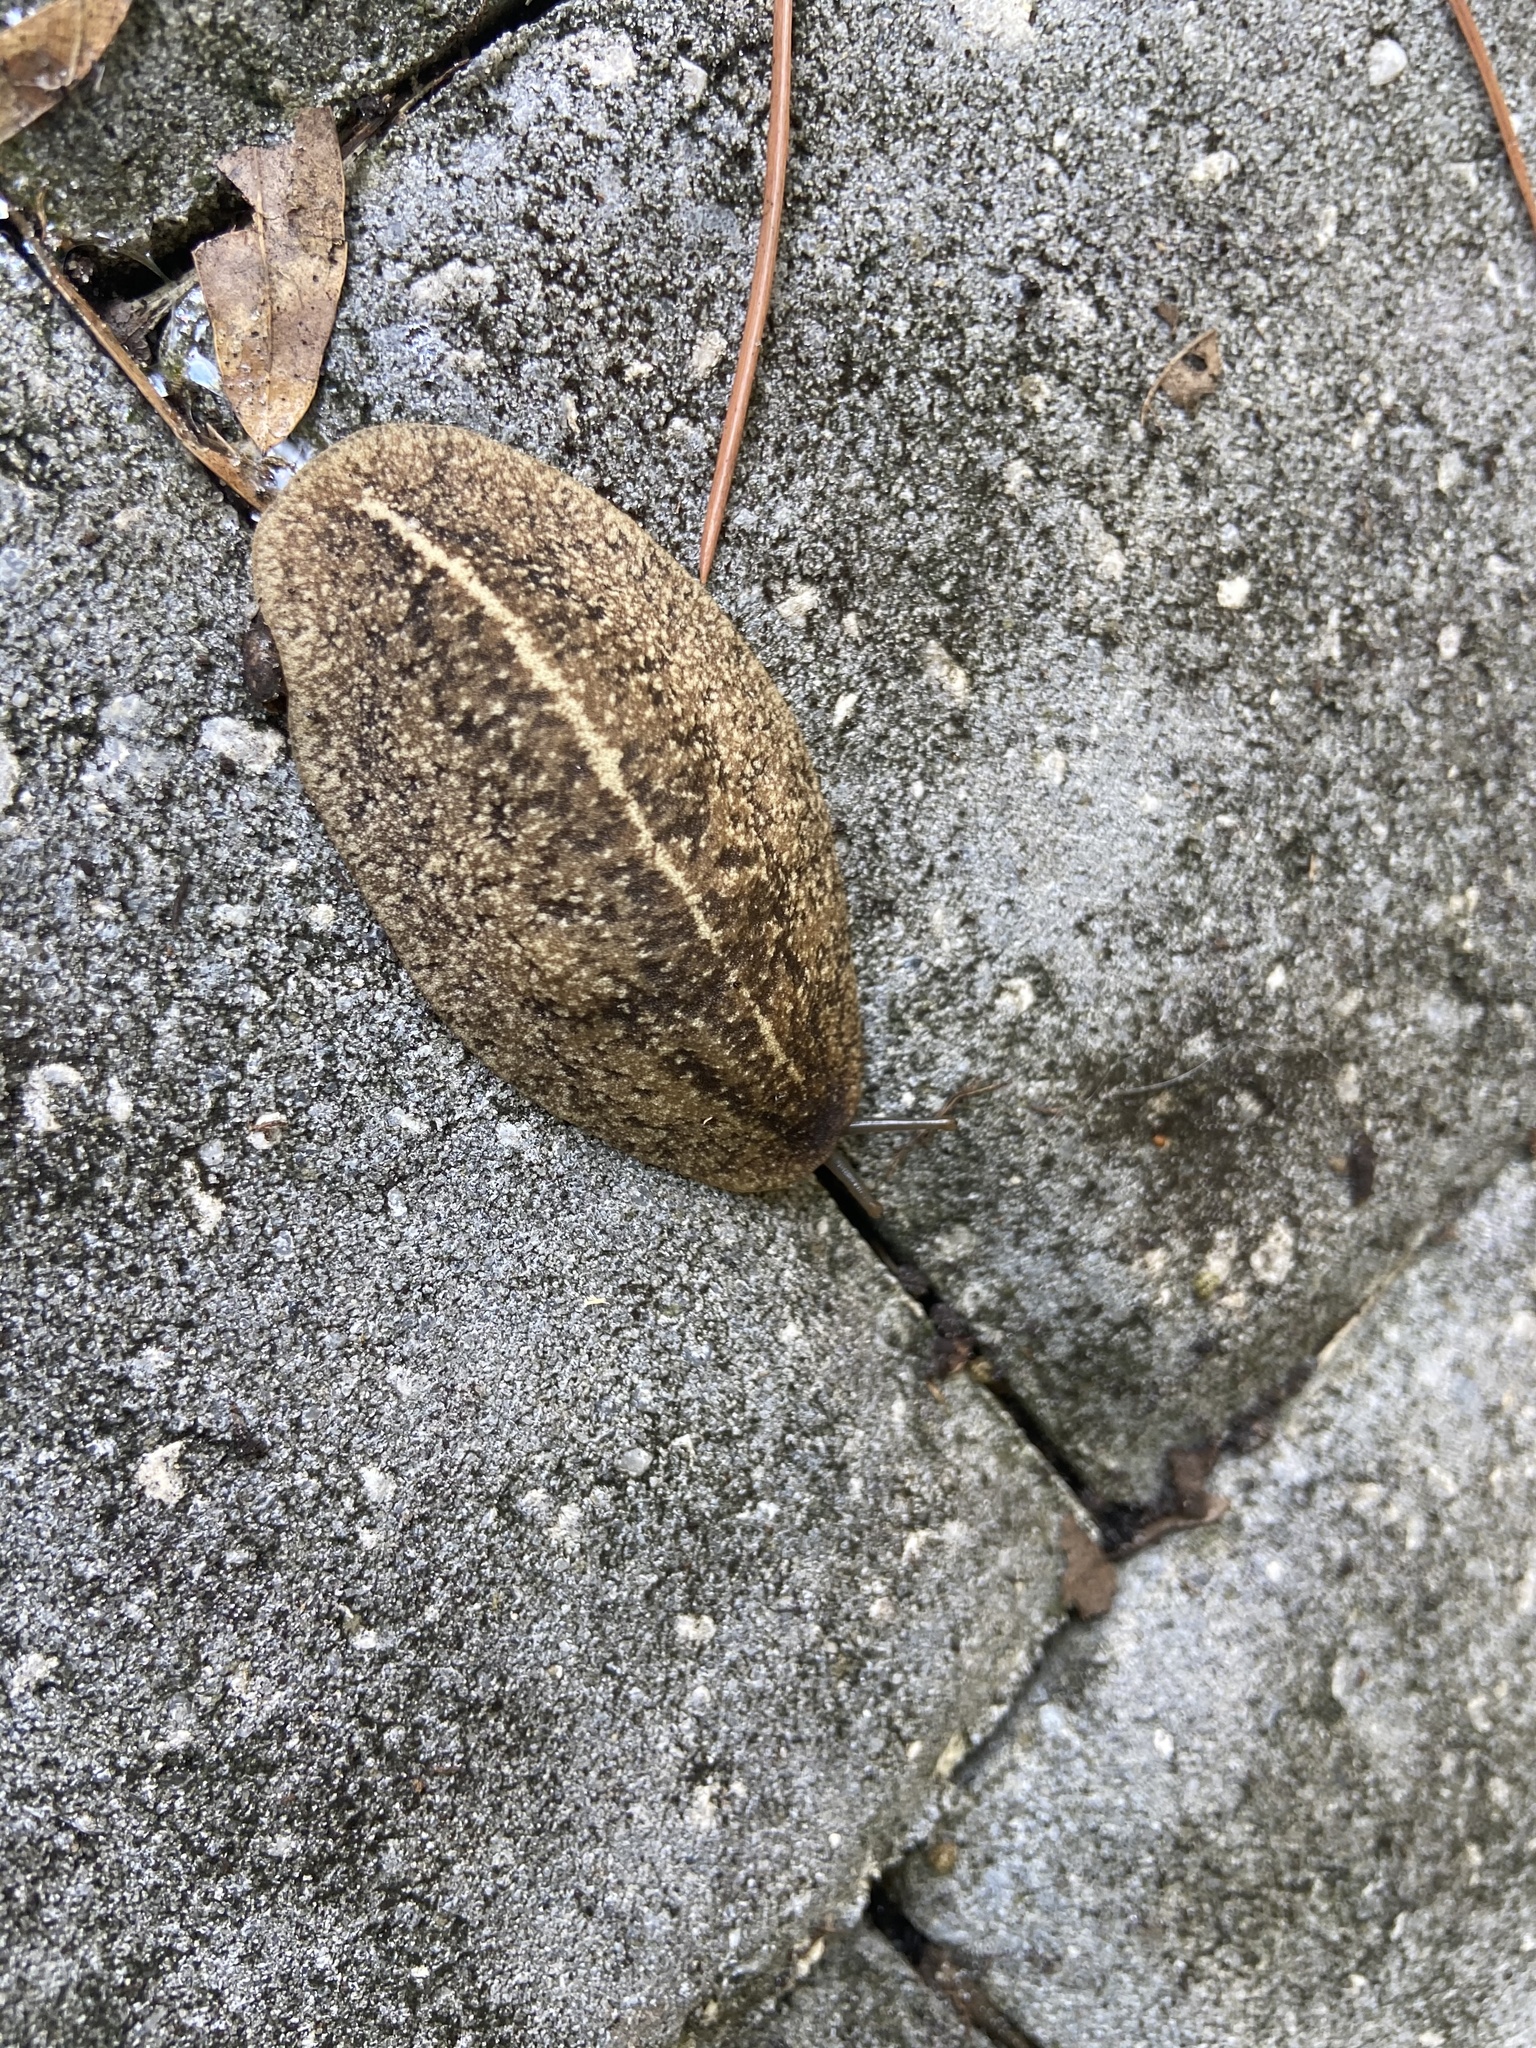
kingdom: Animalia
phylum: Mollusca
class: Gastropoda
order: Systellommatophora
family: Veronicellidae
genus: Leidyula
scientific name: Leidyula floridana
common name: Florida leatherleaf
